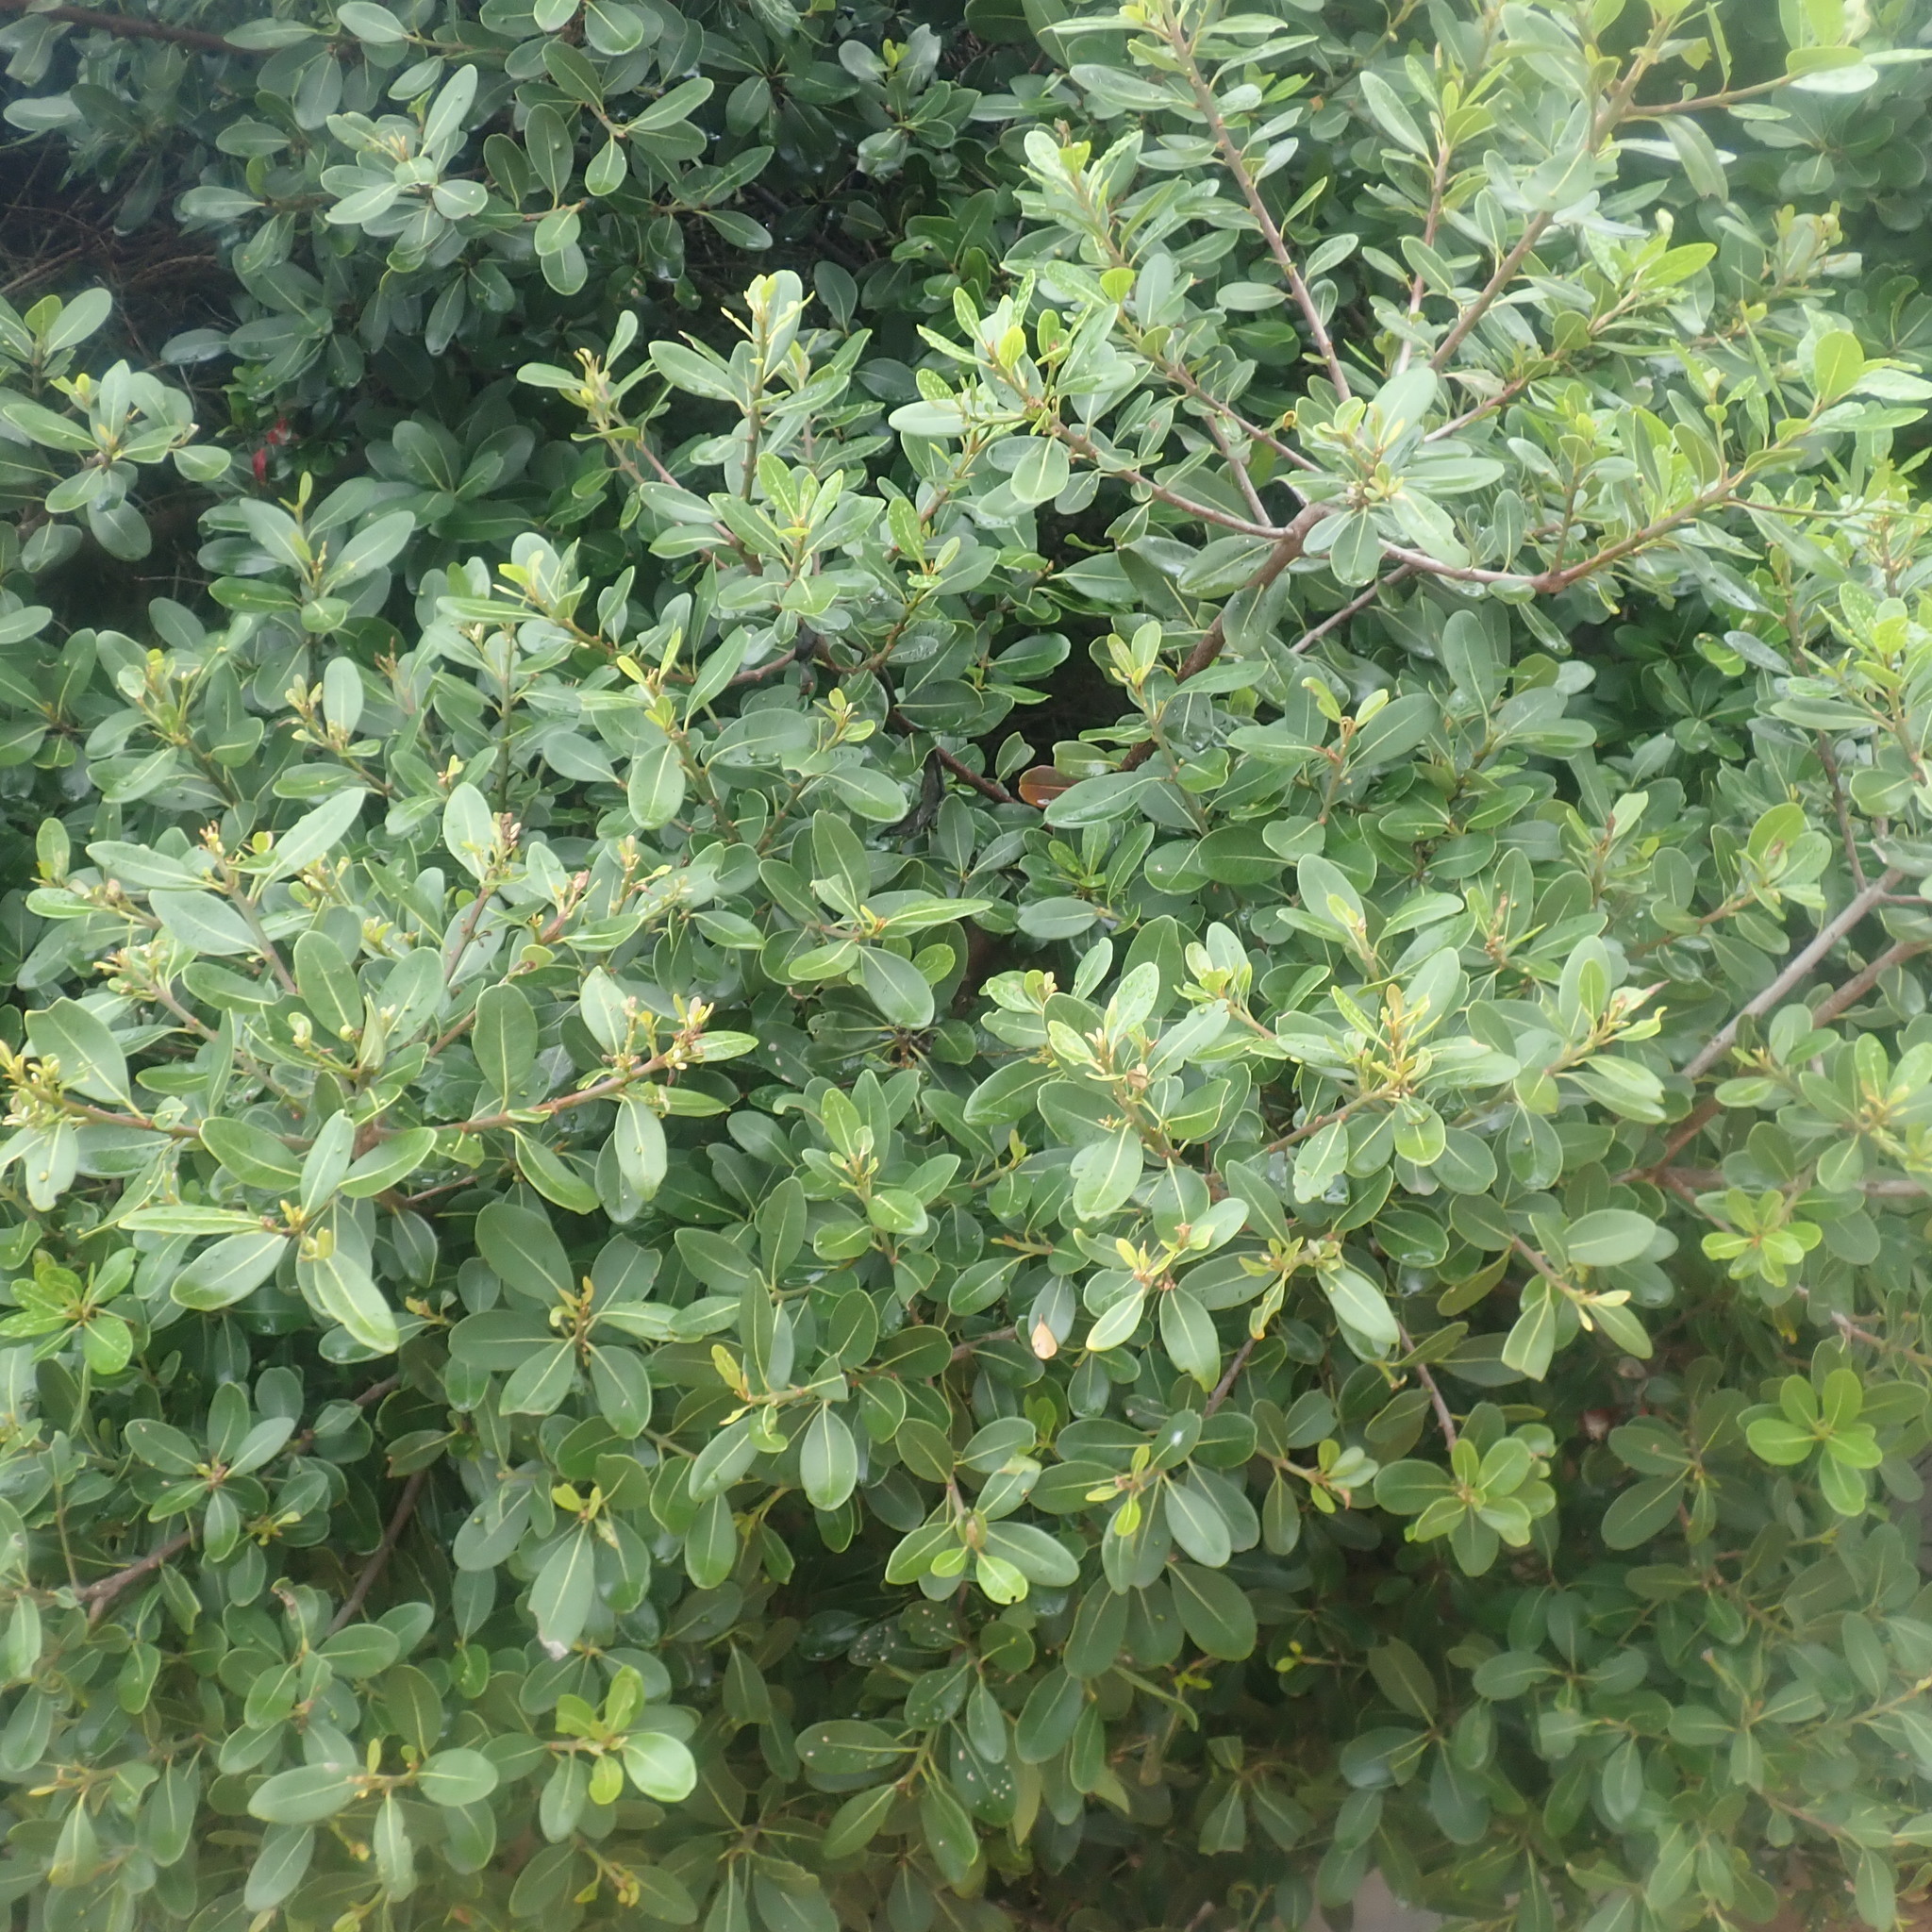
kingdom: Plantae
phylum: Tracheophyta
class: Magnoliopsida
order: Ericales
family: Sapotaceae
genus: Sideroxylon
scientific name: Sideroxylon inerme
